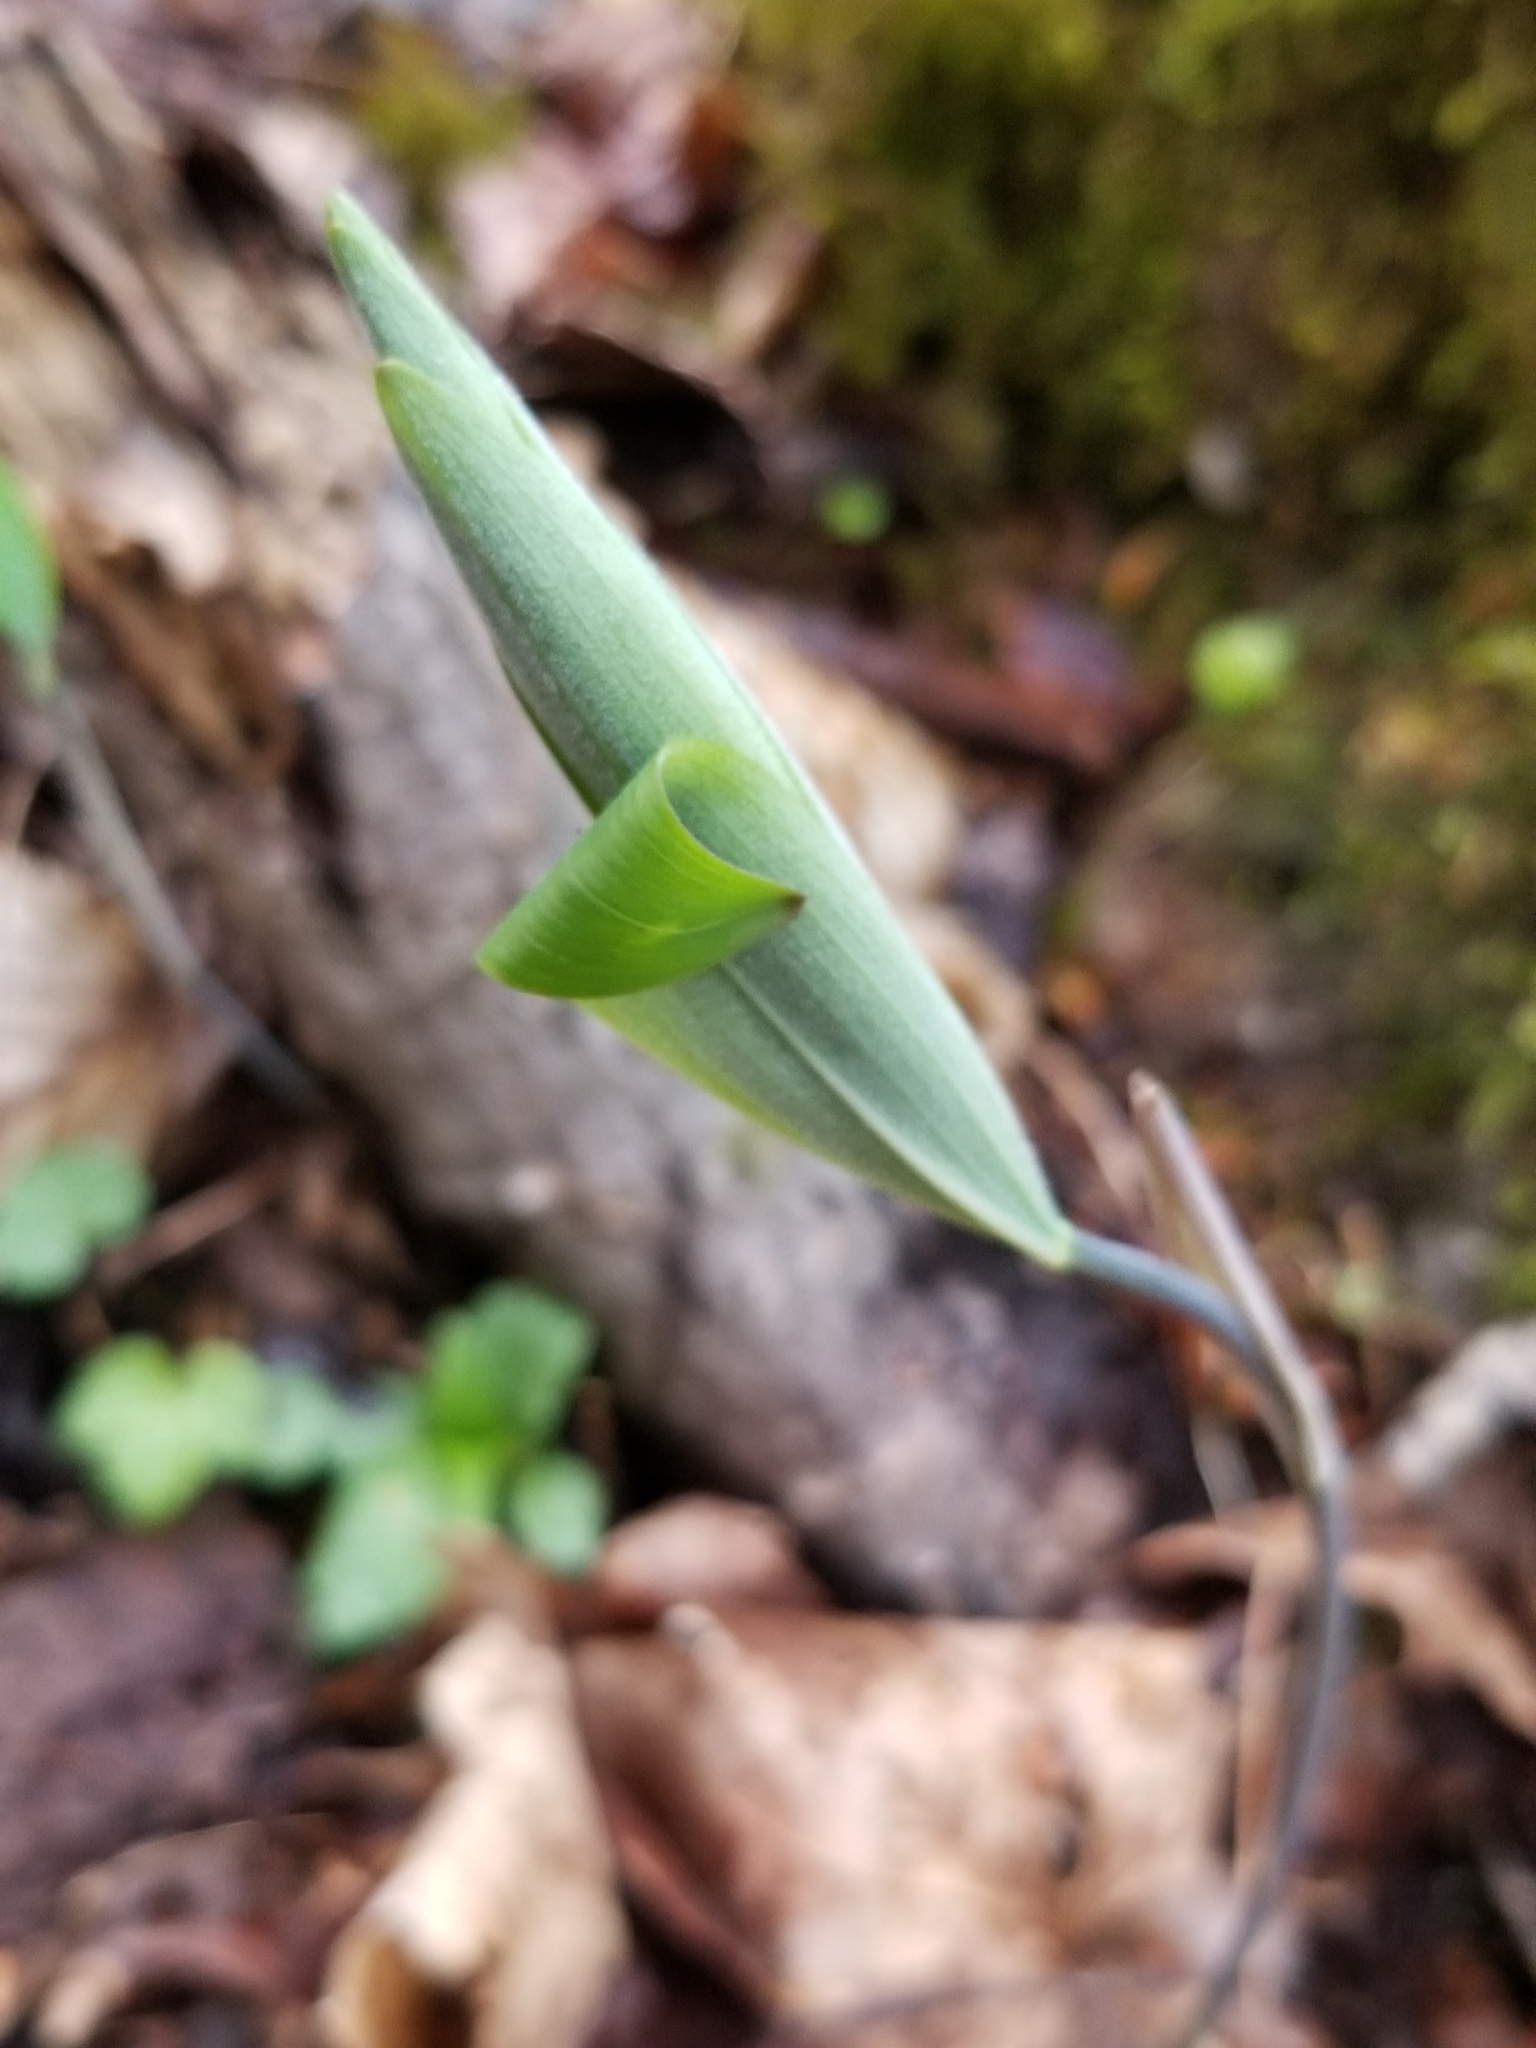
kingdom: Plantae
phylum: Tracheophyta
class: Liliopsida
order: Asparagales
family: Asparagaceae
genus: Polygonatum
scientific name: Polygonatum pubescens
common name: Downy solomon's seal
